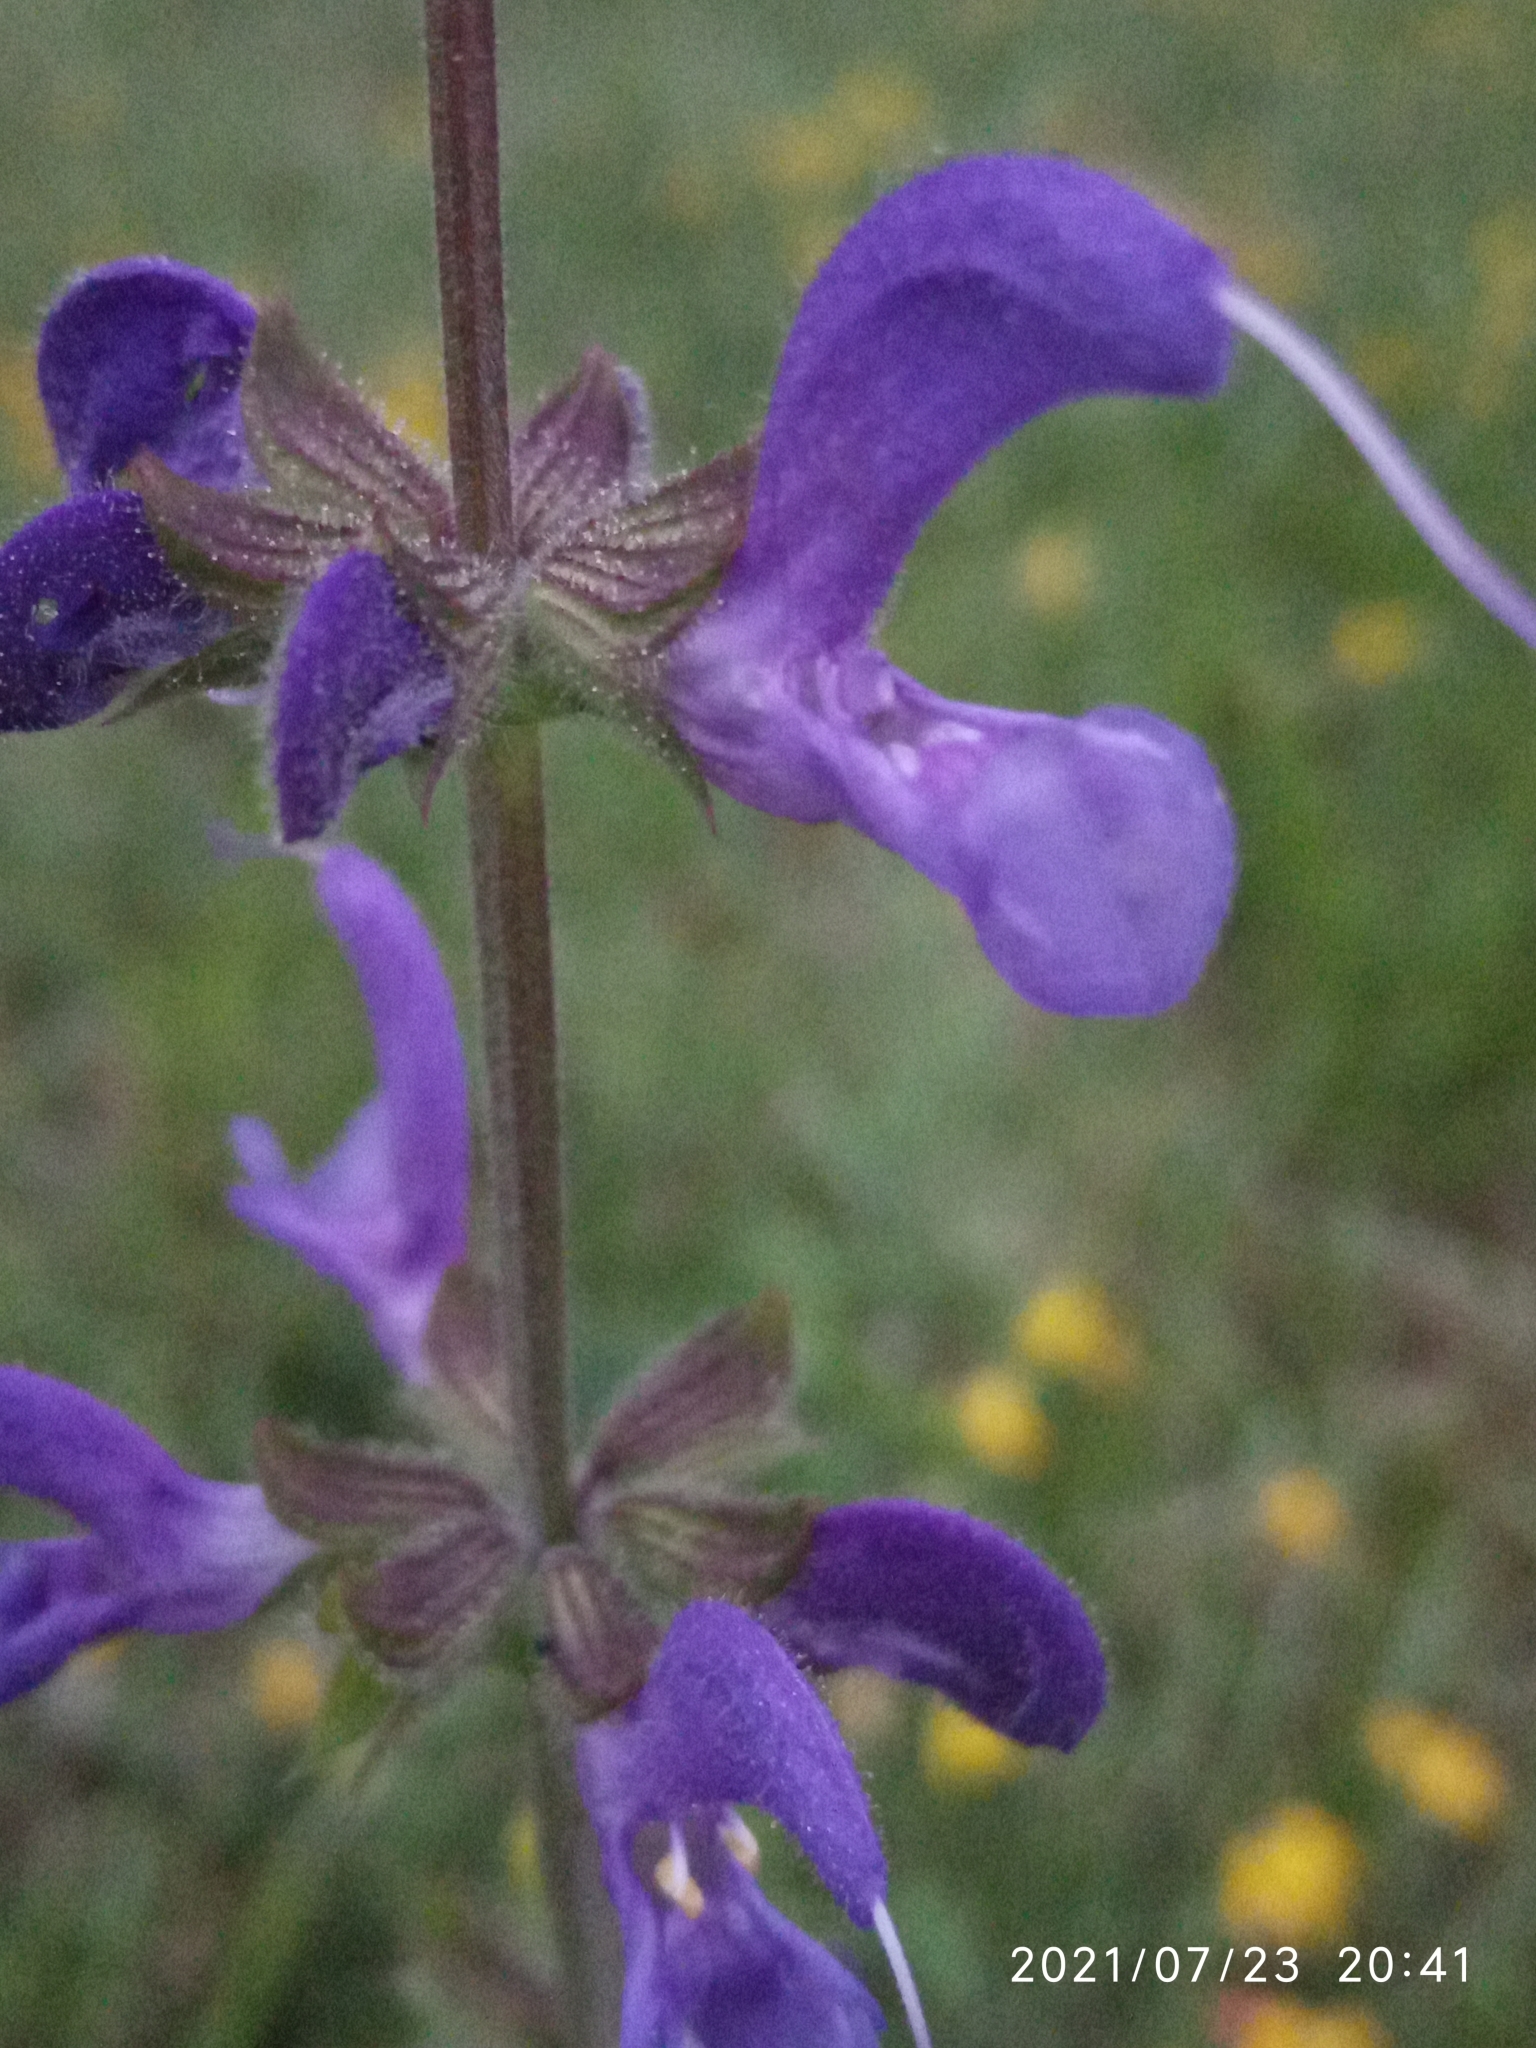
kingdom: Plantae
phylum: Tracheophyta
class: Magnoliopsida
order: Lamiales
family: Lamiaceae
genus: Salvia
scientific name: Salvia pratensis
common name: Meadow sage
